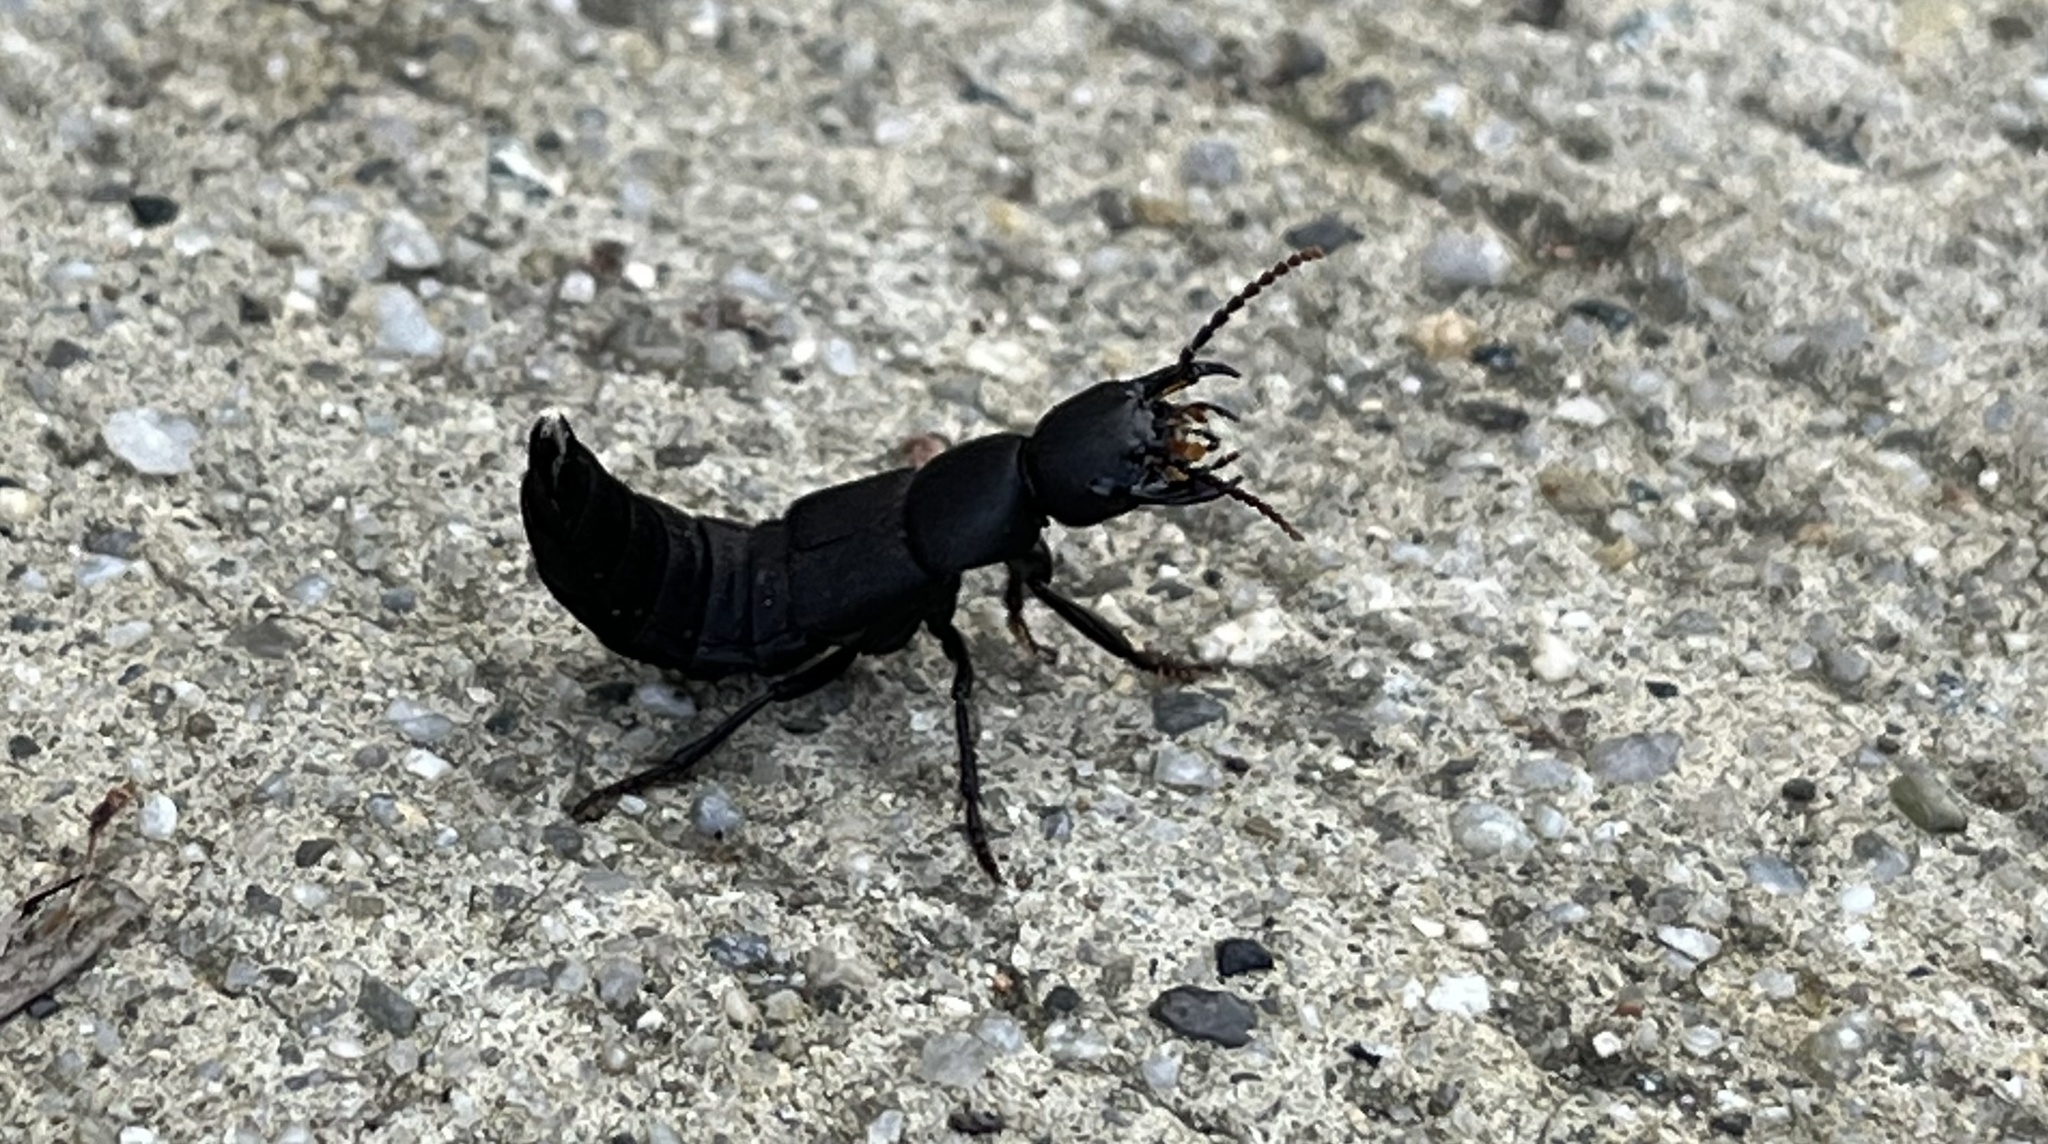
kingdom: Animalia
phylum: Arthropoda
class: Insecta
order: Coleoptera
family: Staphylinidae
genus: Ocypus
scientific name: Ocypus olens
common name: Devil's coach-horse
